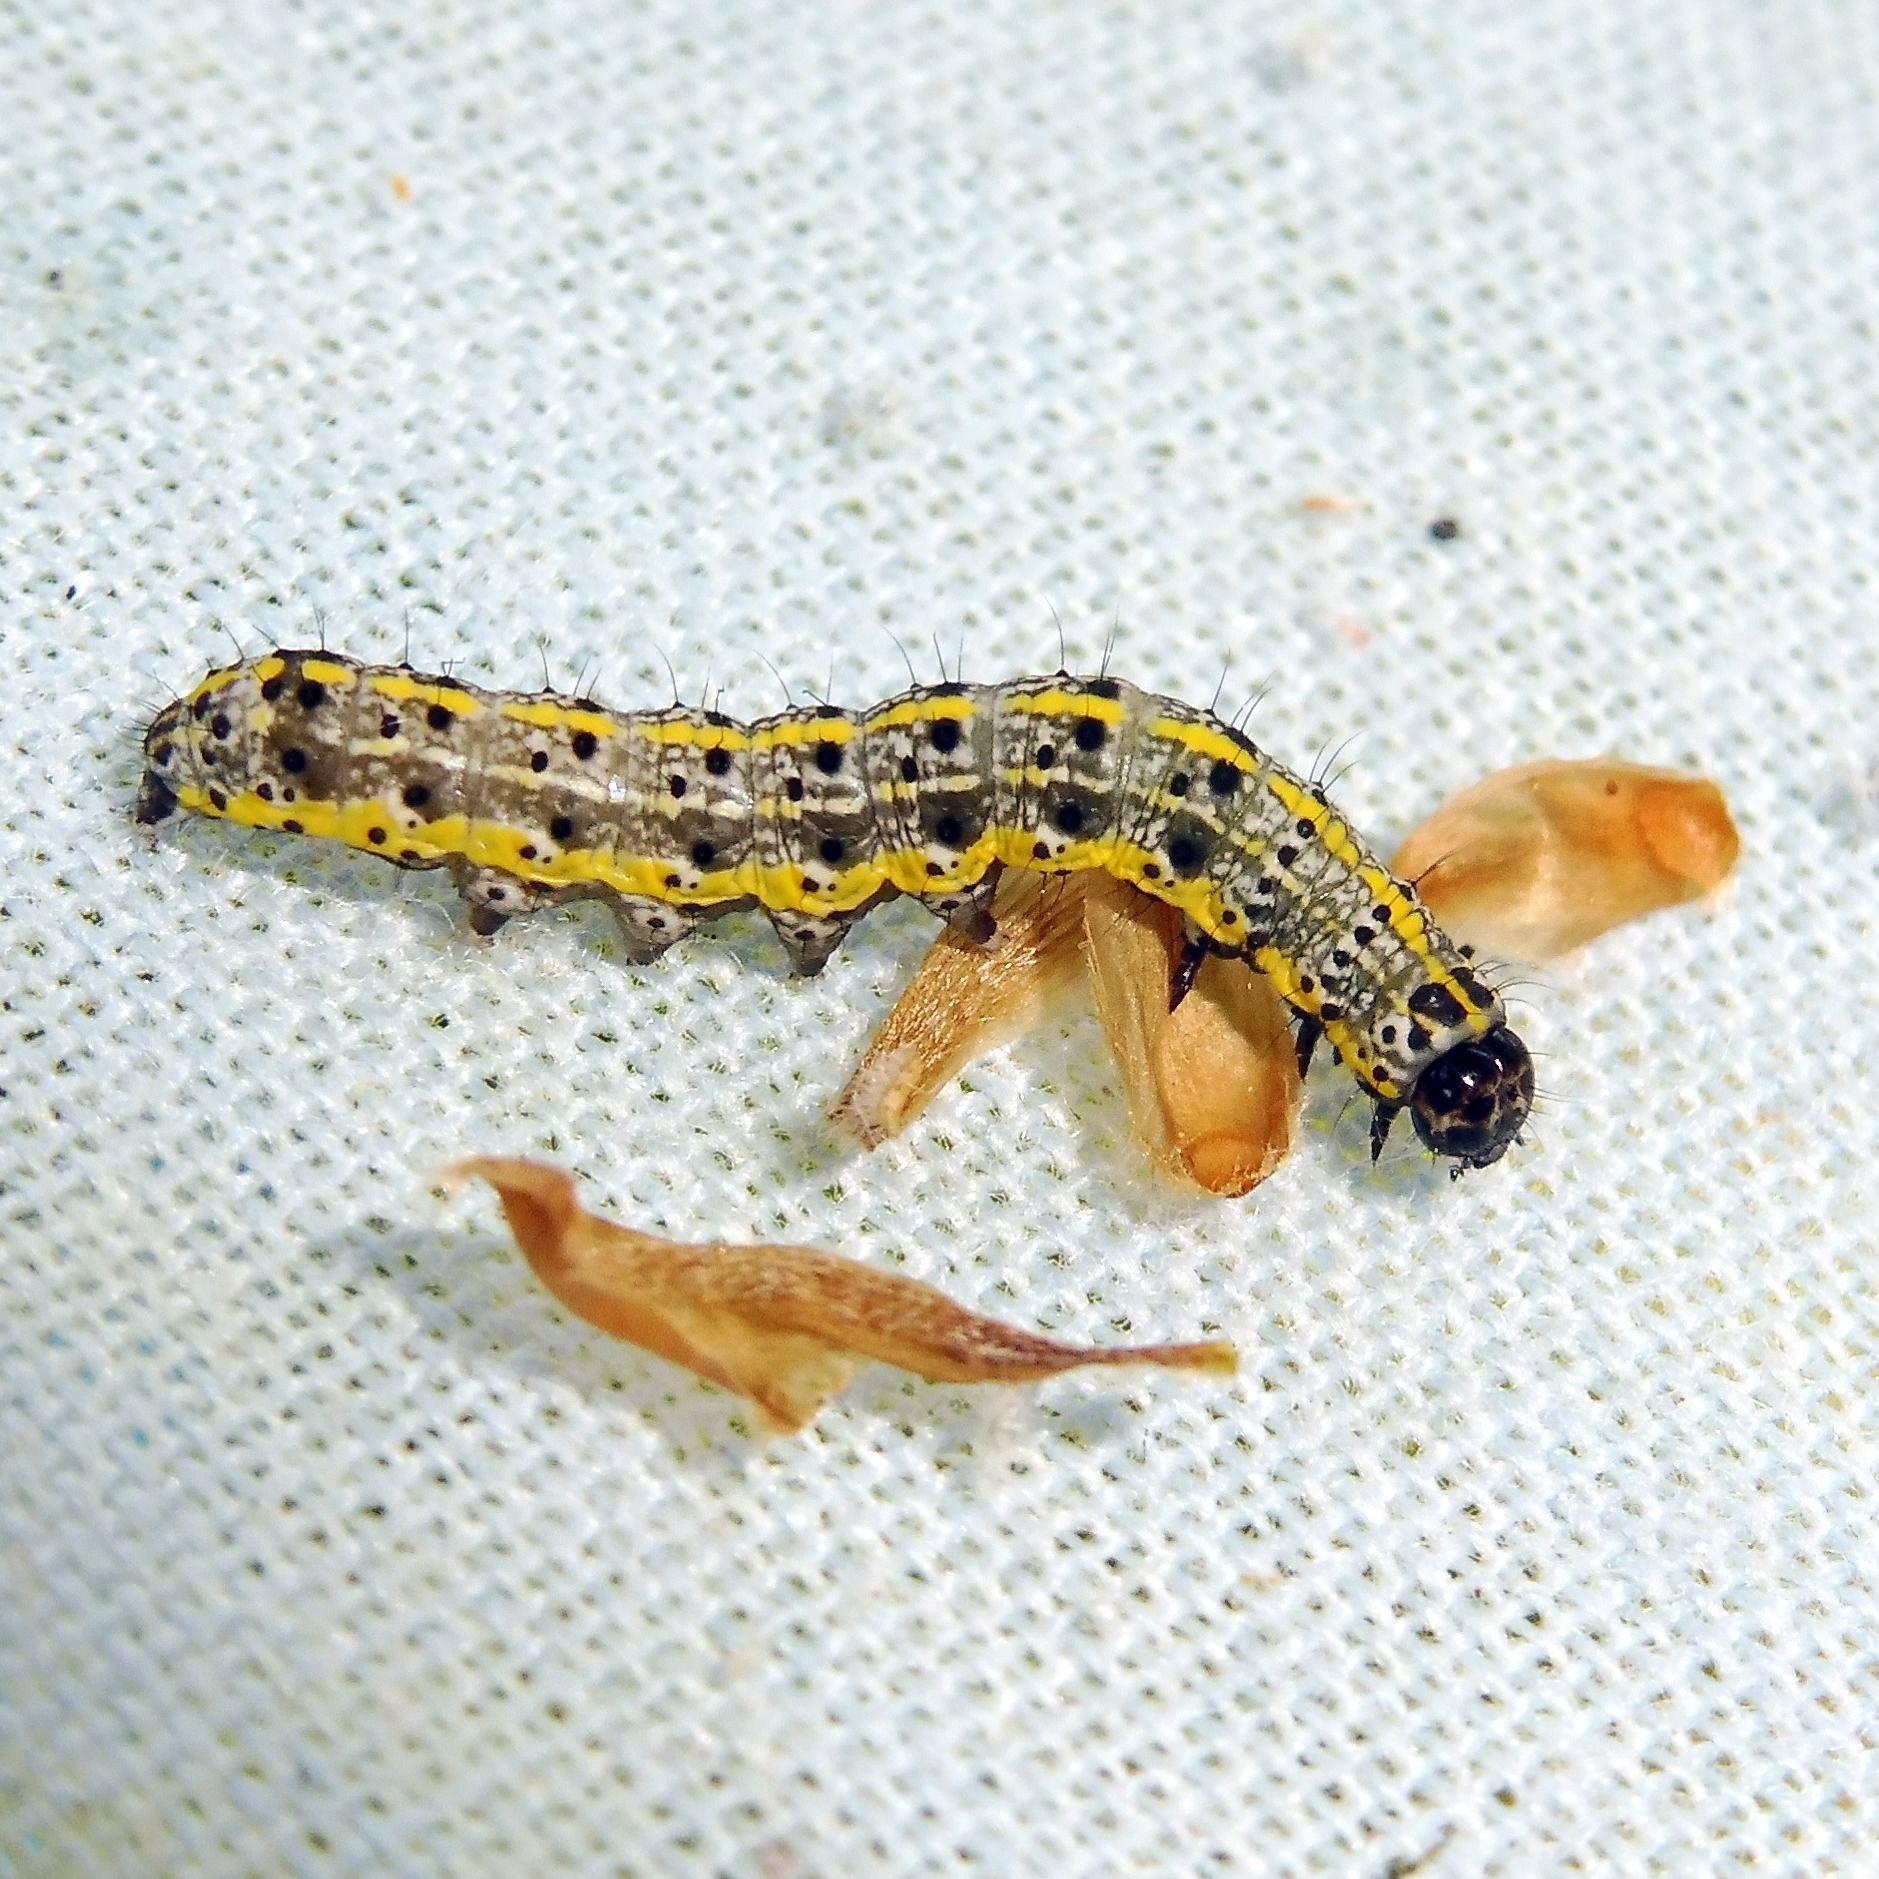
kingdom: Animalia
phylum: Arthropoda
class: Insecta
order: Lepidoptera
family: Noctuidae
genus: Orthosia
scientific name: Orthosia miniosa
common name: Blossom underwing
